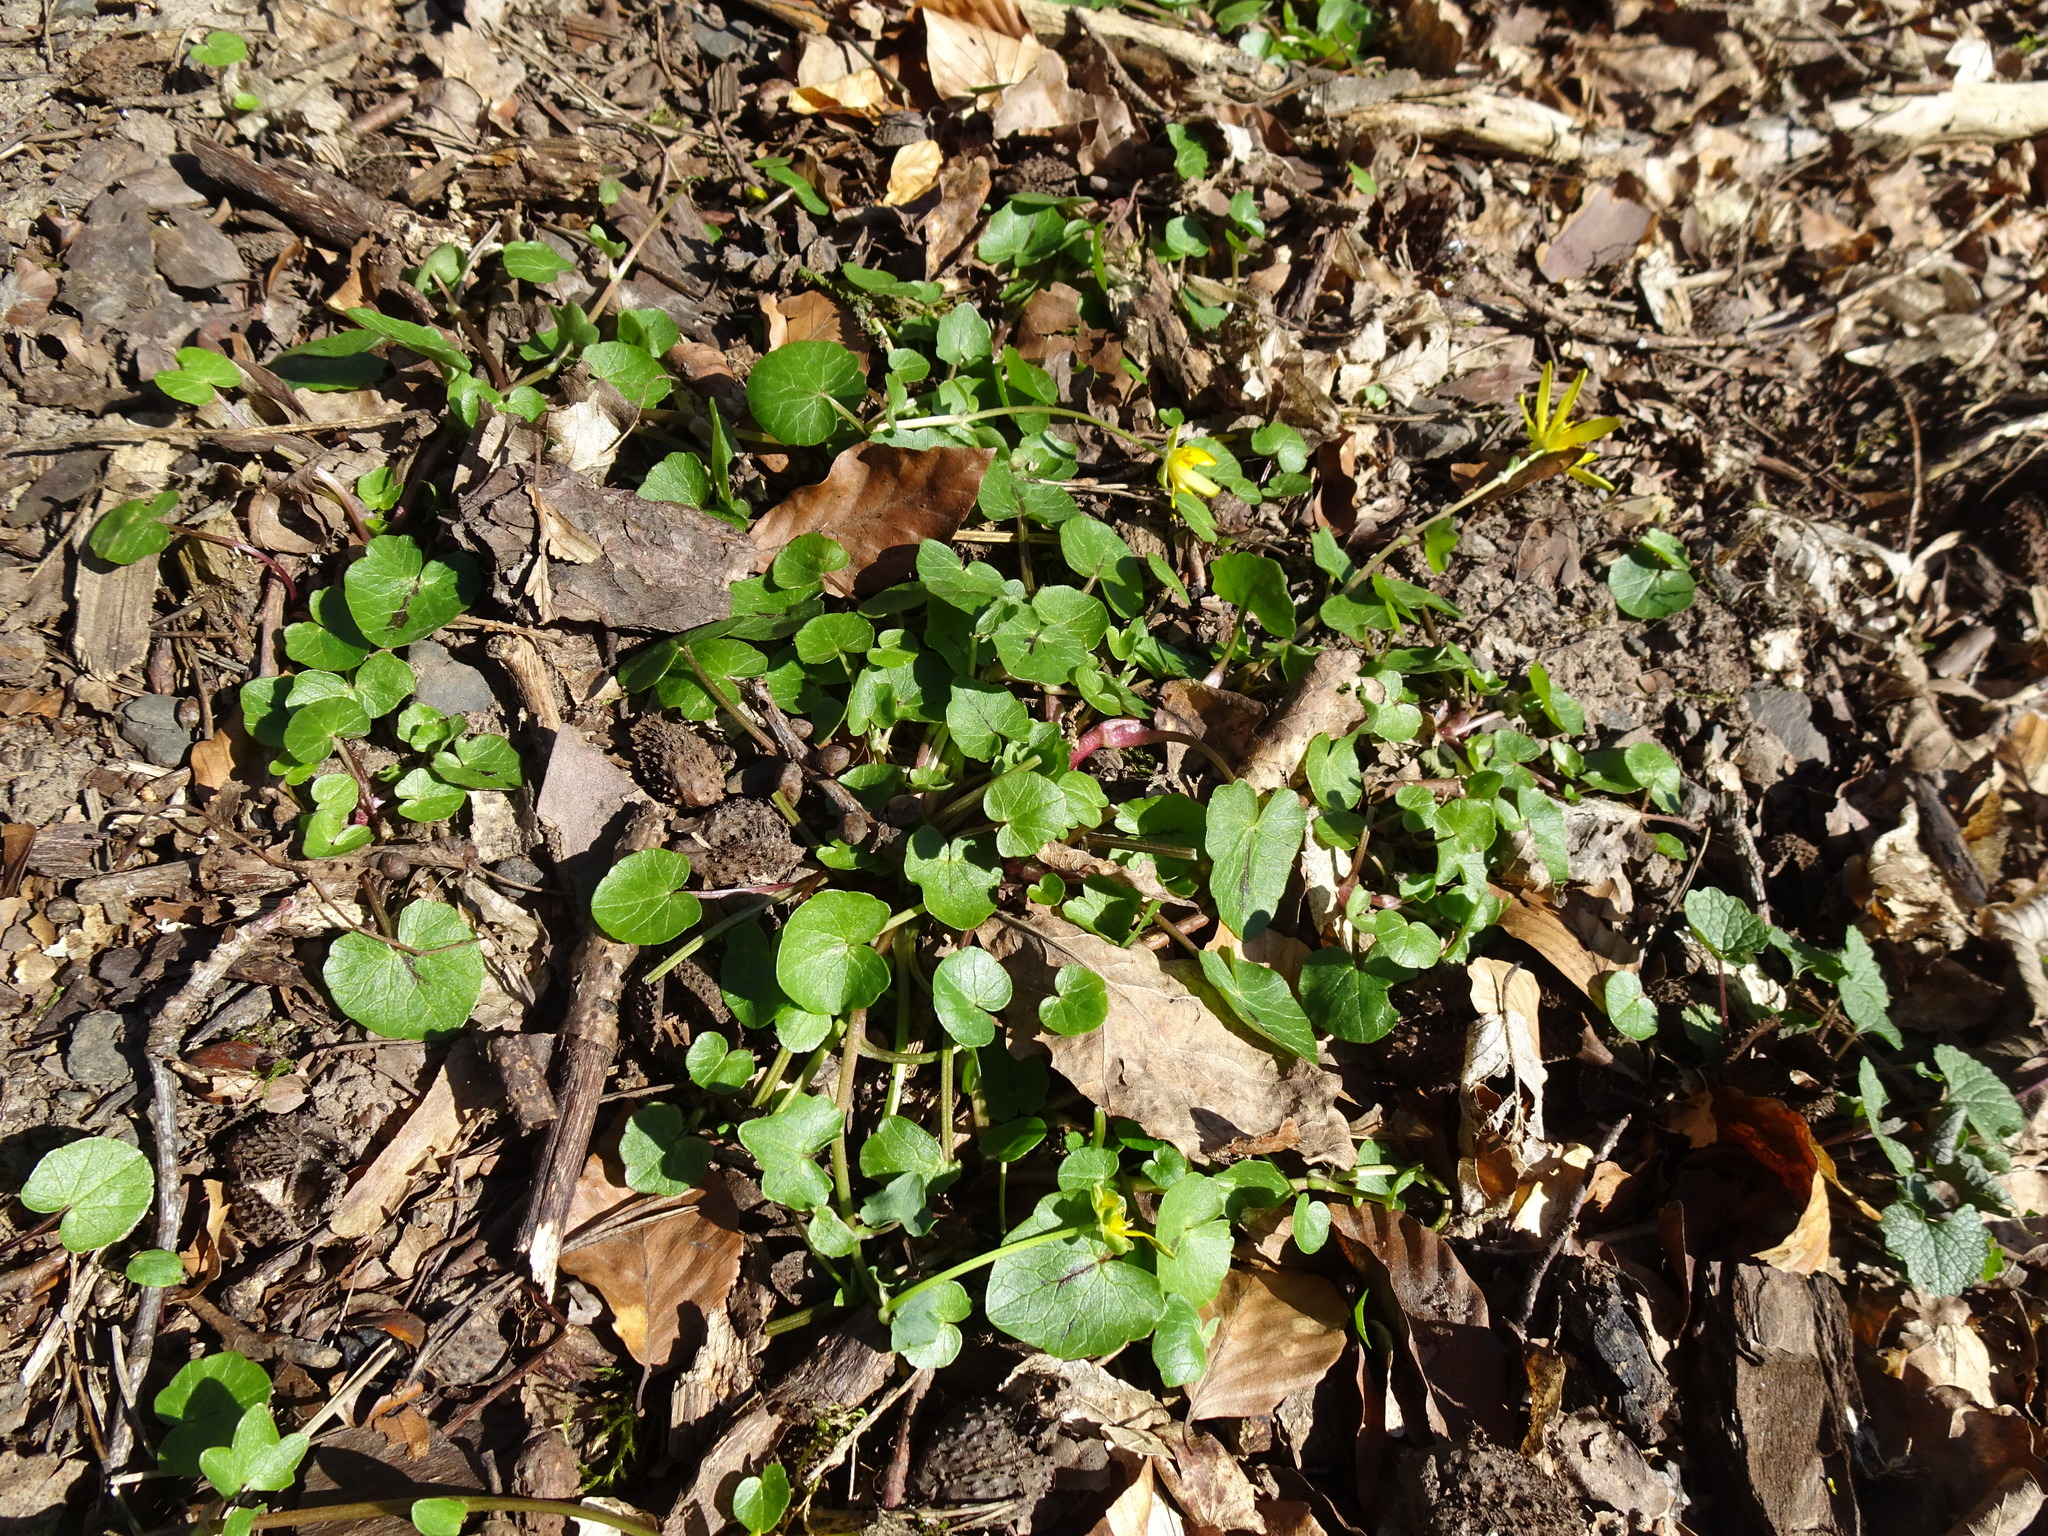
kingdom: Plantae
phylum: Tracheophyta
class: Magnoliopsida
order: Ranunculales
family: Ranunculaceae
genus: Ficaria
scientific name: Ficaria verna
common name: Lesser celandine
